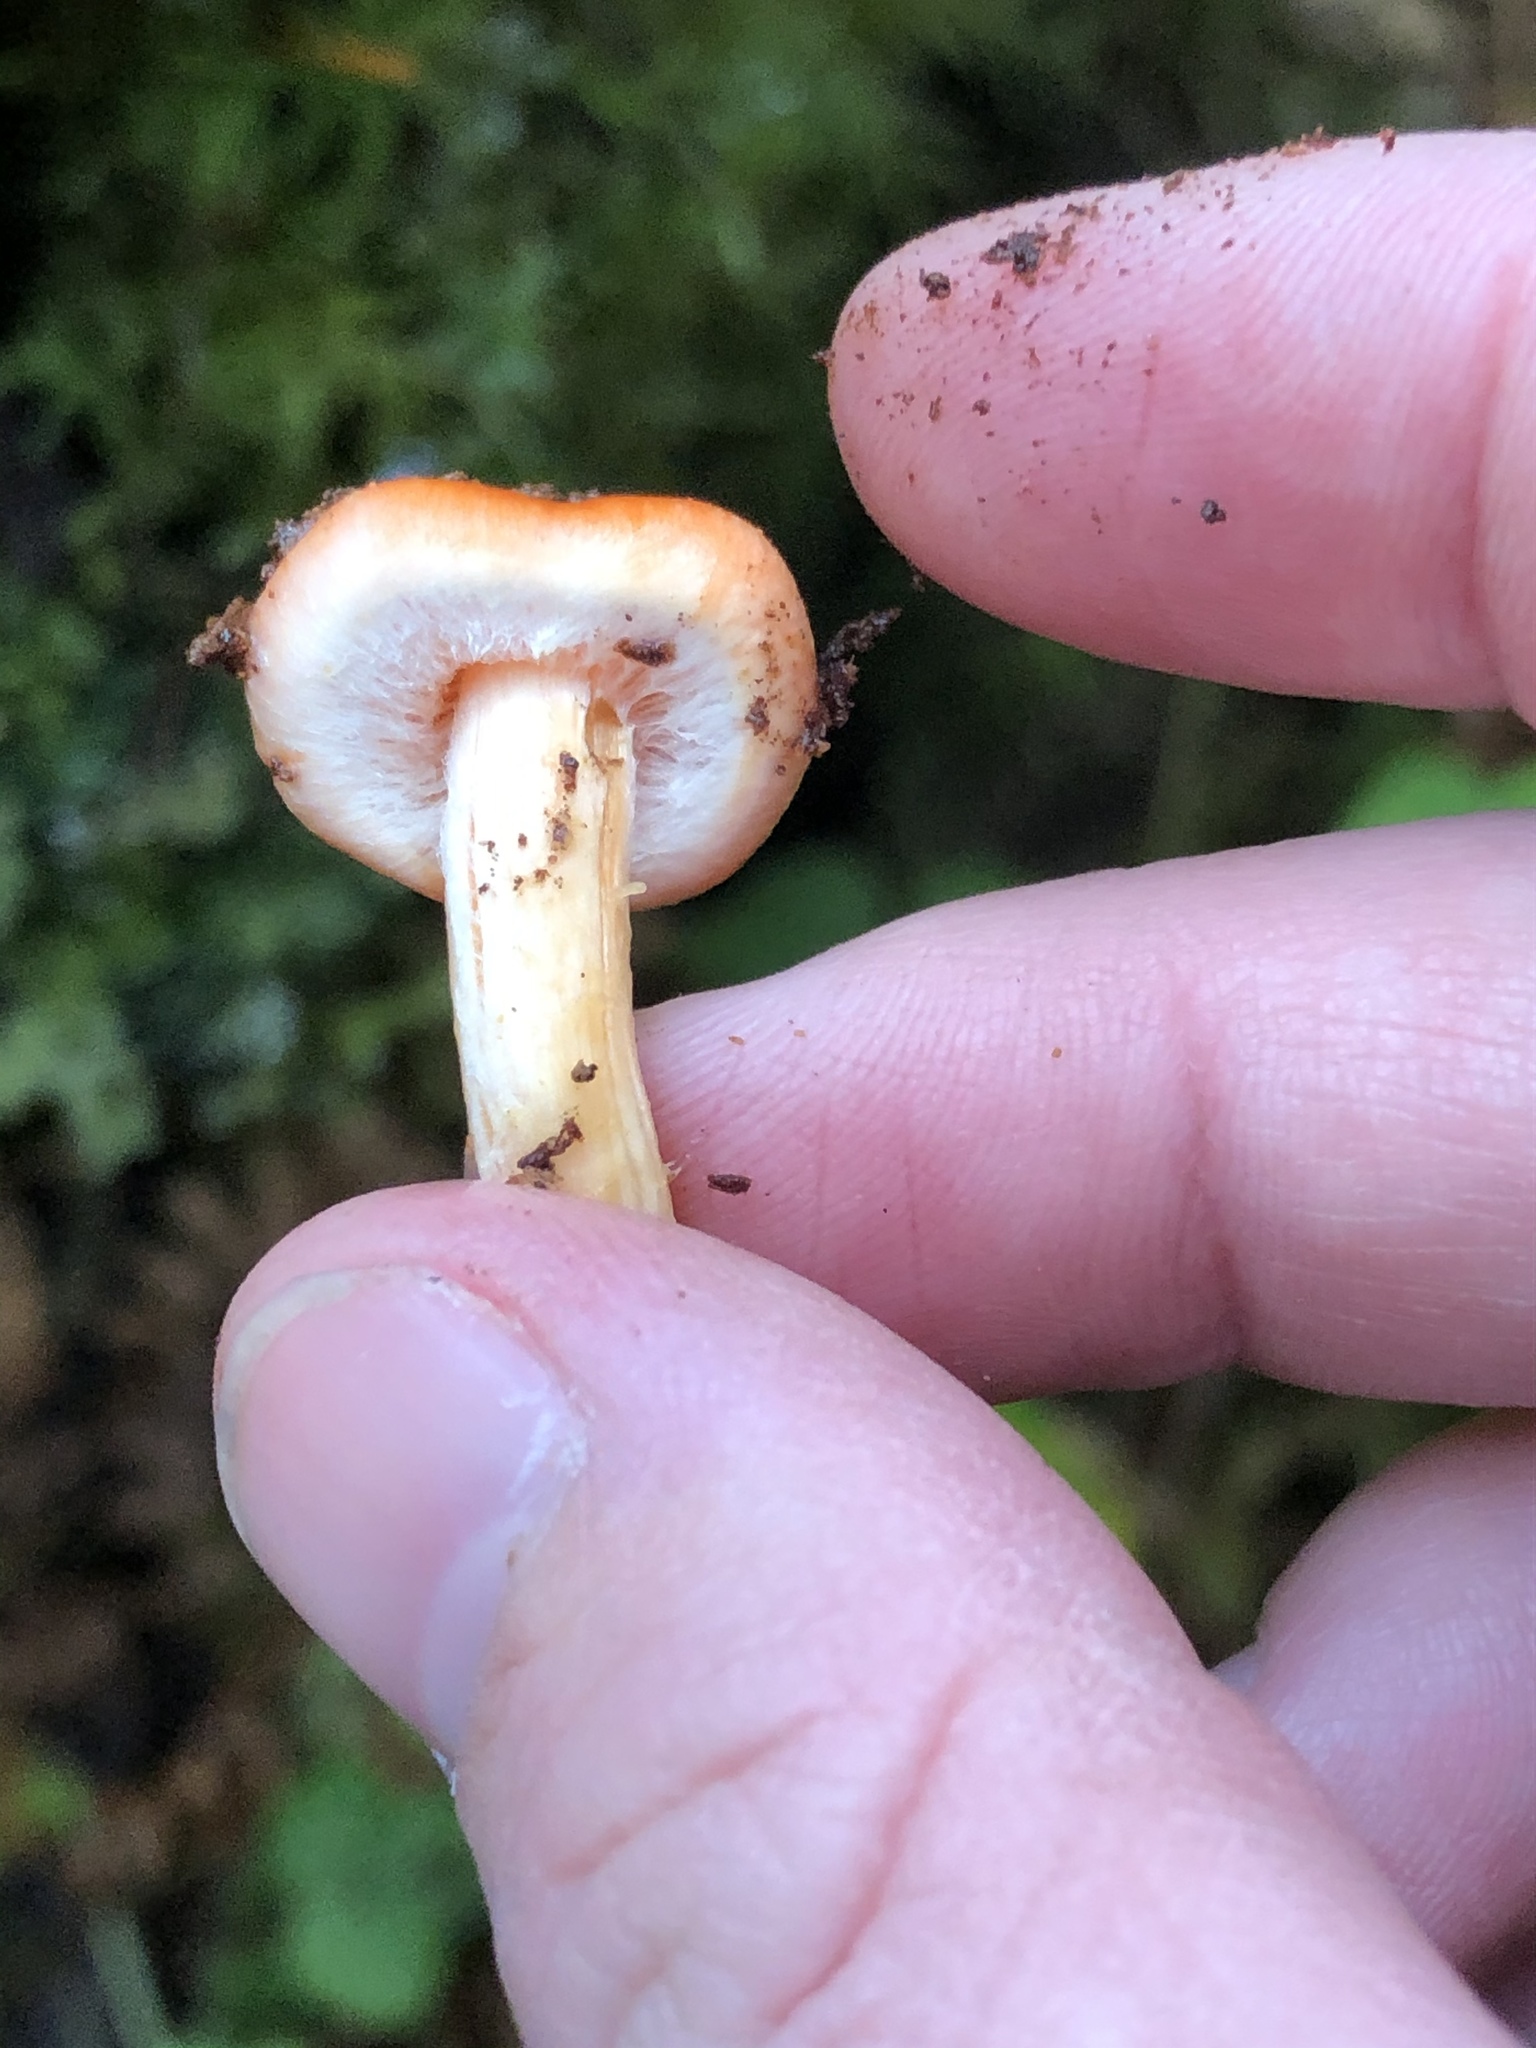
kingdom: Fungi
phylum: Basidiomycota
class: Agaricomycetes
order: Agaricales
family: Strophariaceae
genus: Pyrrhulomyces
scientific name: Pyrrhulomyces astragalinus
